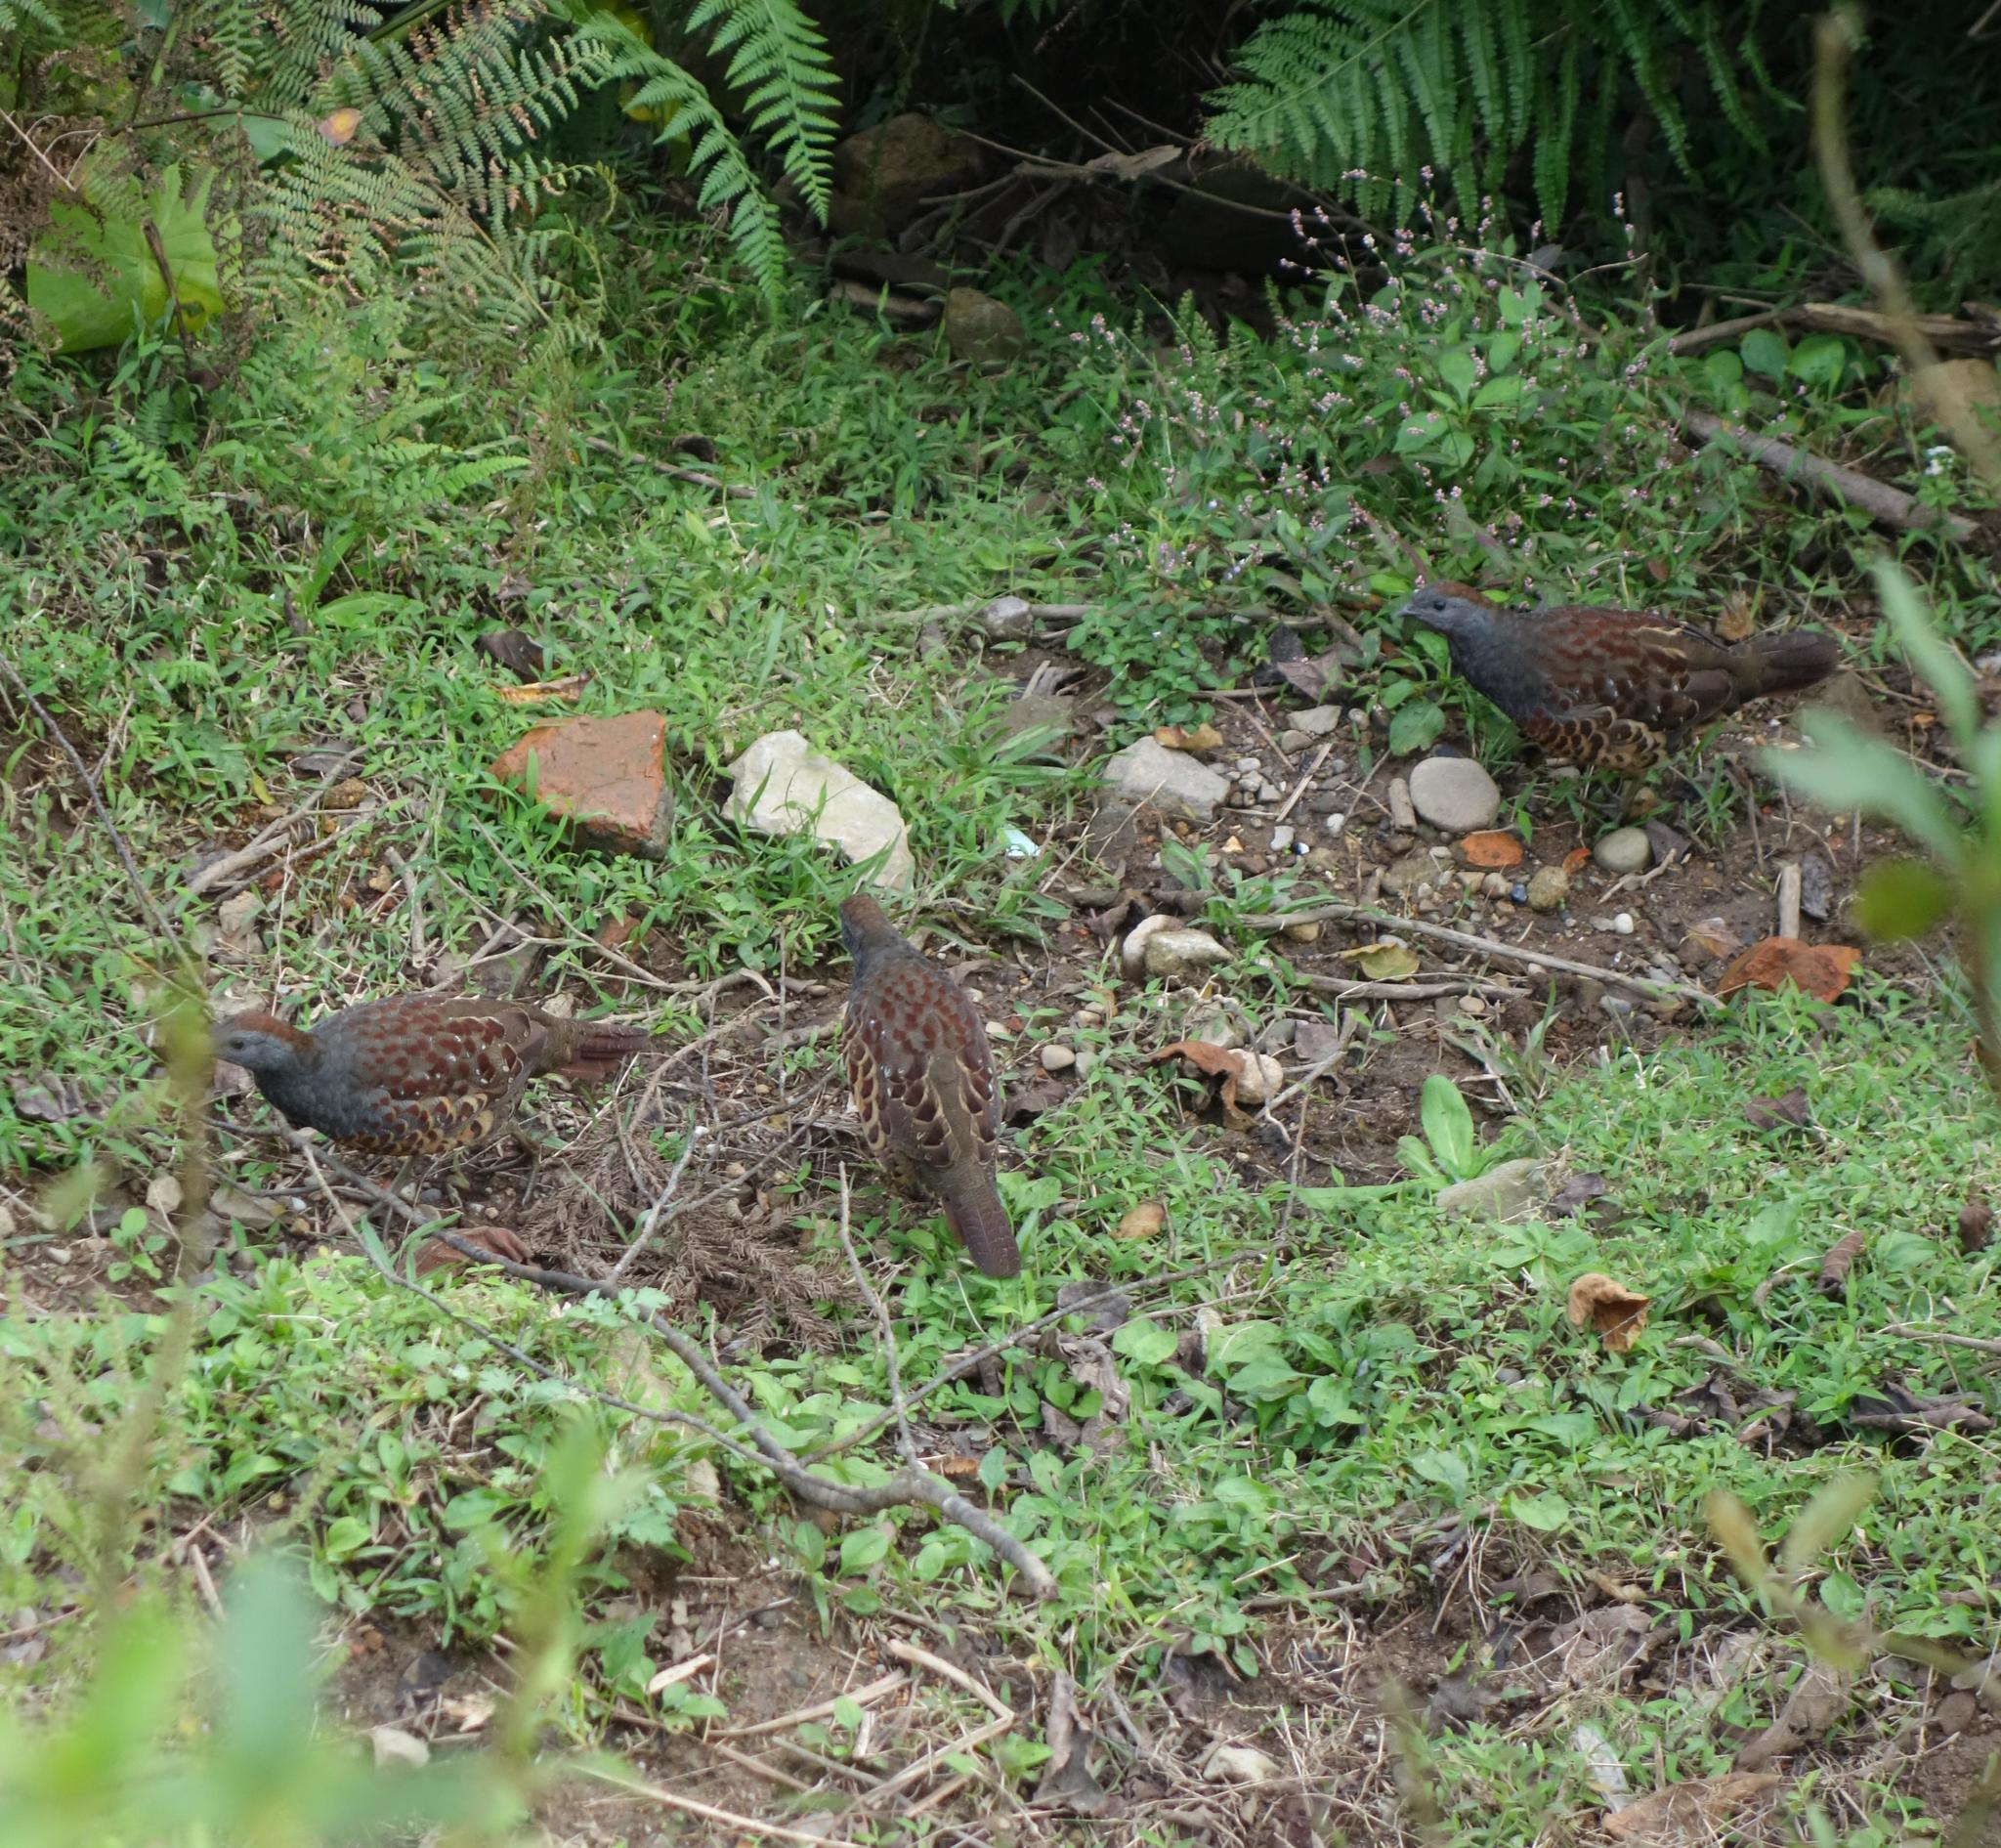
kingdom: Animalia
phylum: Chordata
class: Aves
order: Galliformes
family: Phasianidae
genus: Bambusicola
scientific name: Bambusicola sonorivox
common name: Taiwan bamboo-partridge
